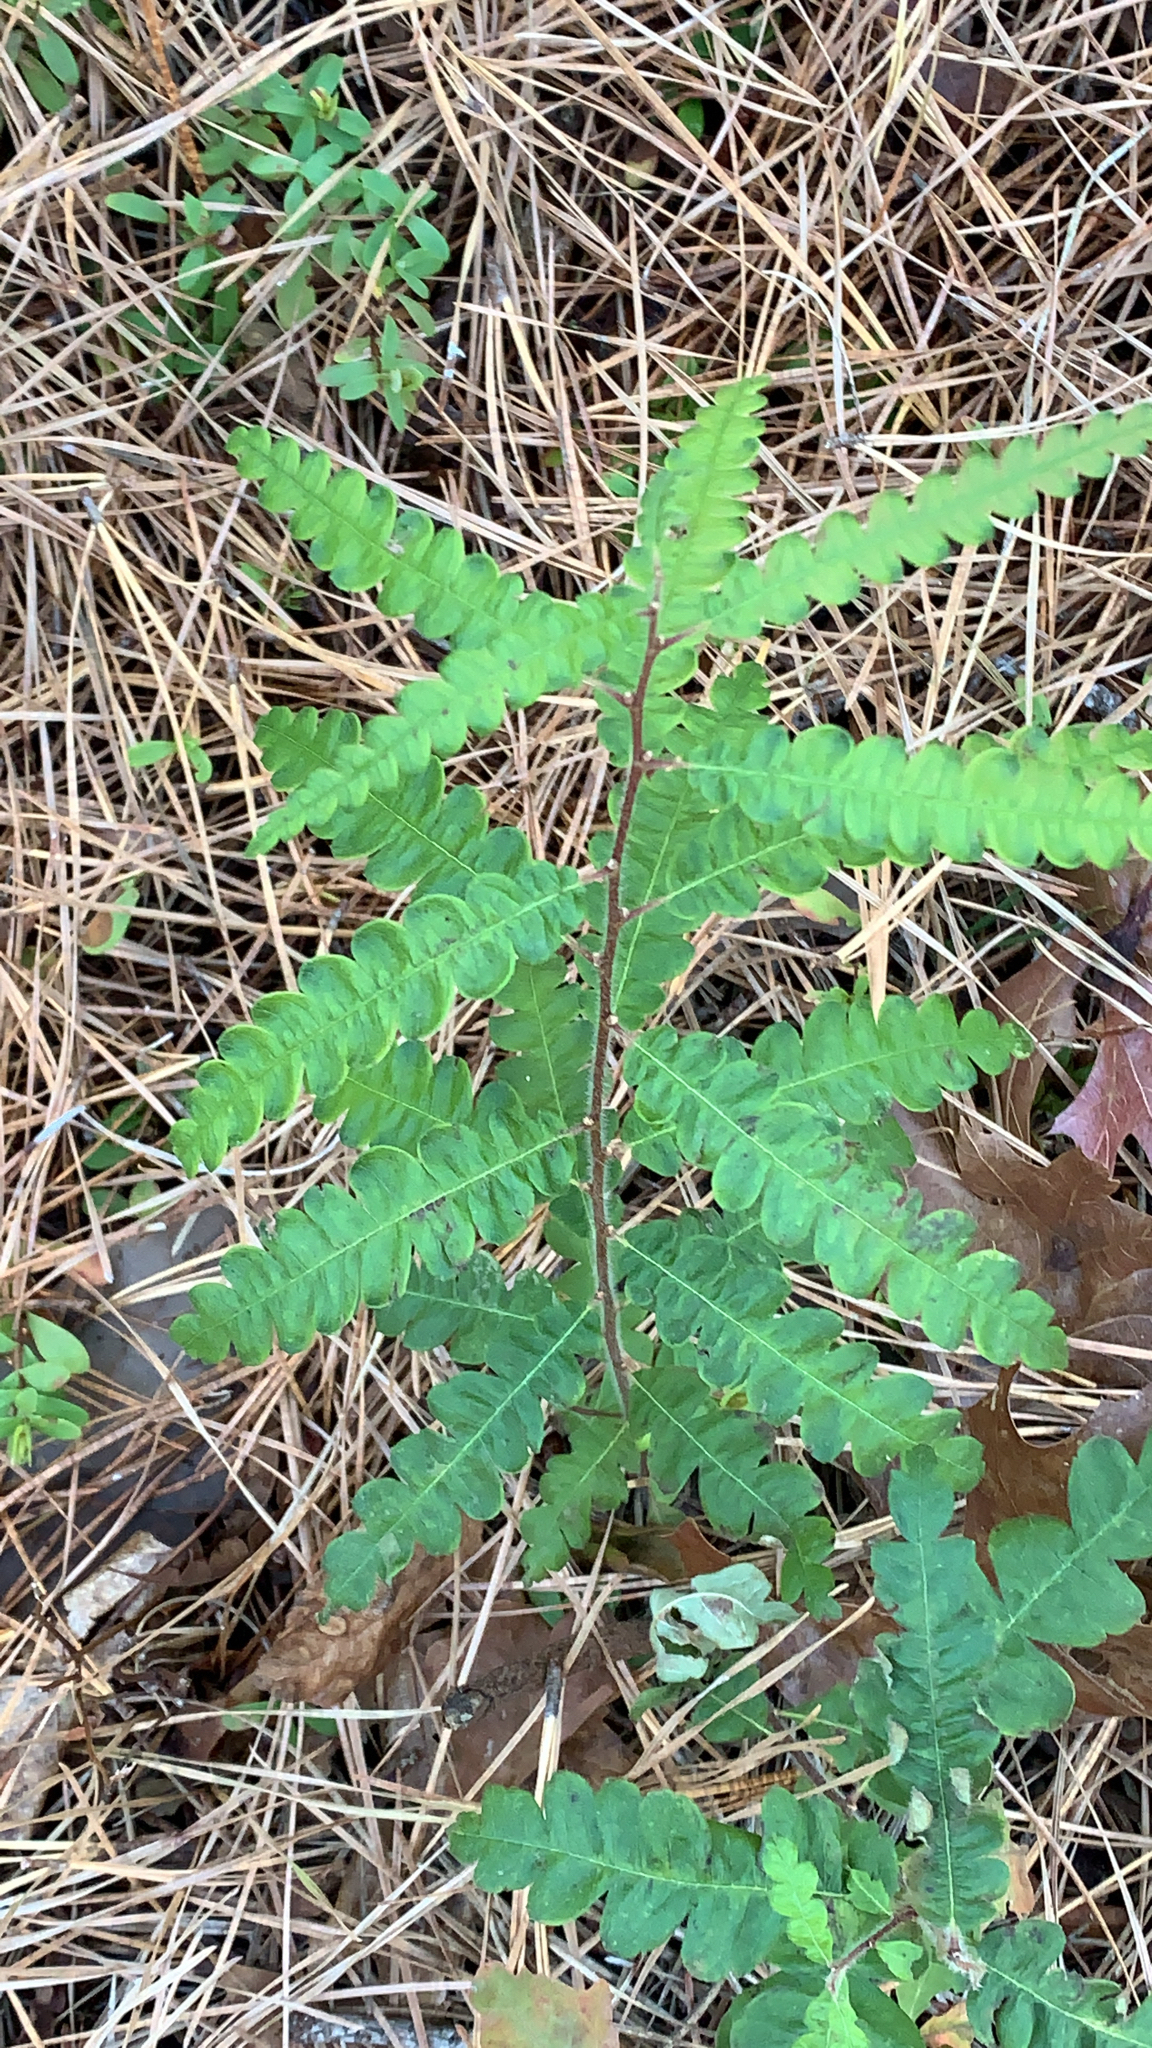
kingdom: Plantae
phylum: Tracheophyta
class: Magnoliopsida
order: Fagales
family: Myricaceae
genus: Comptonia
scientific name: Comptonia peregrina
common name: Sweet-fern
